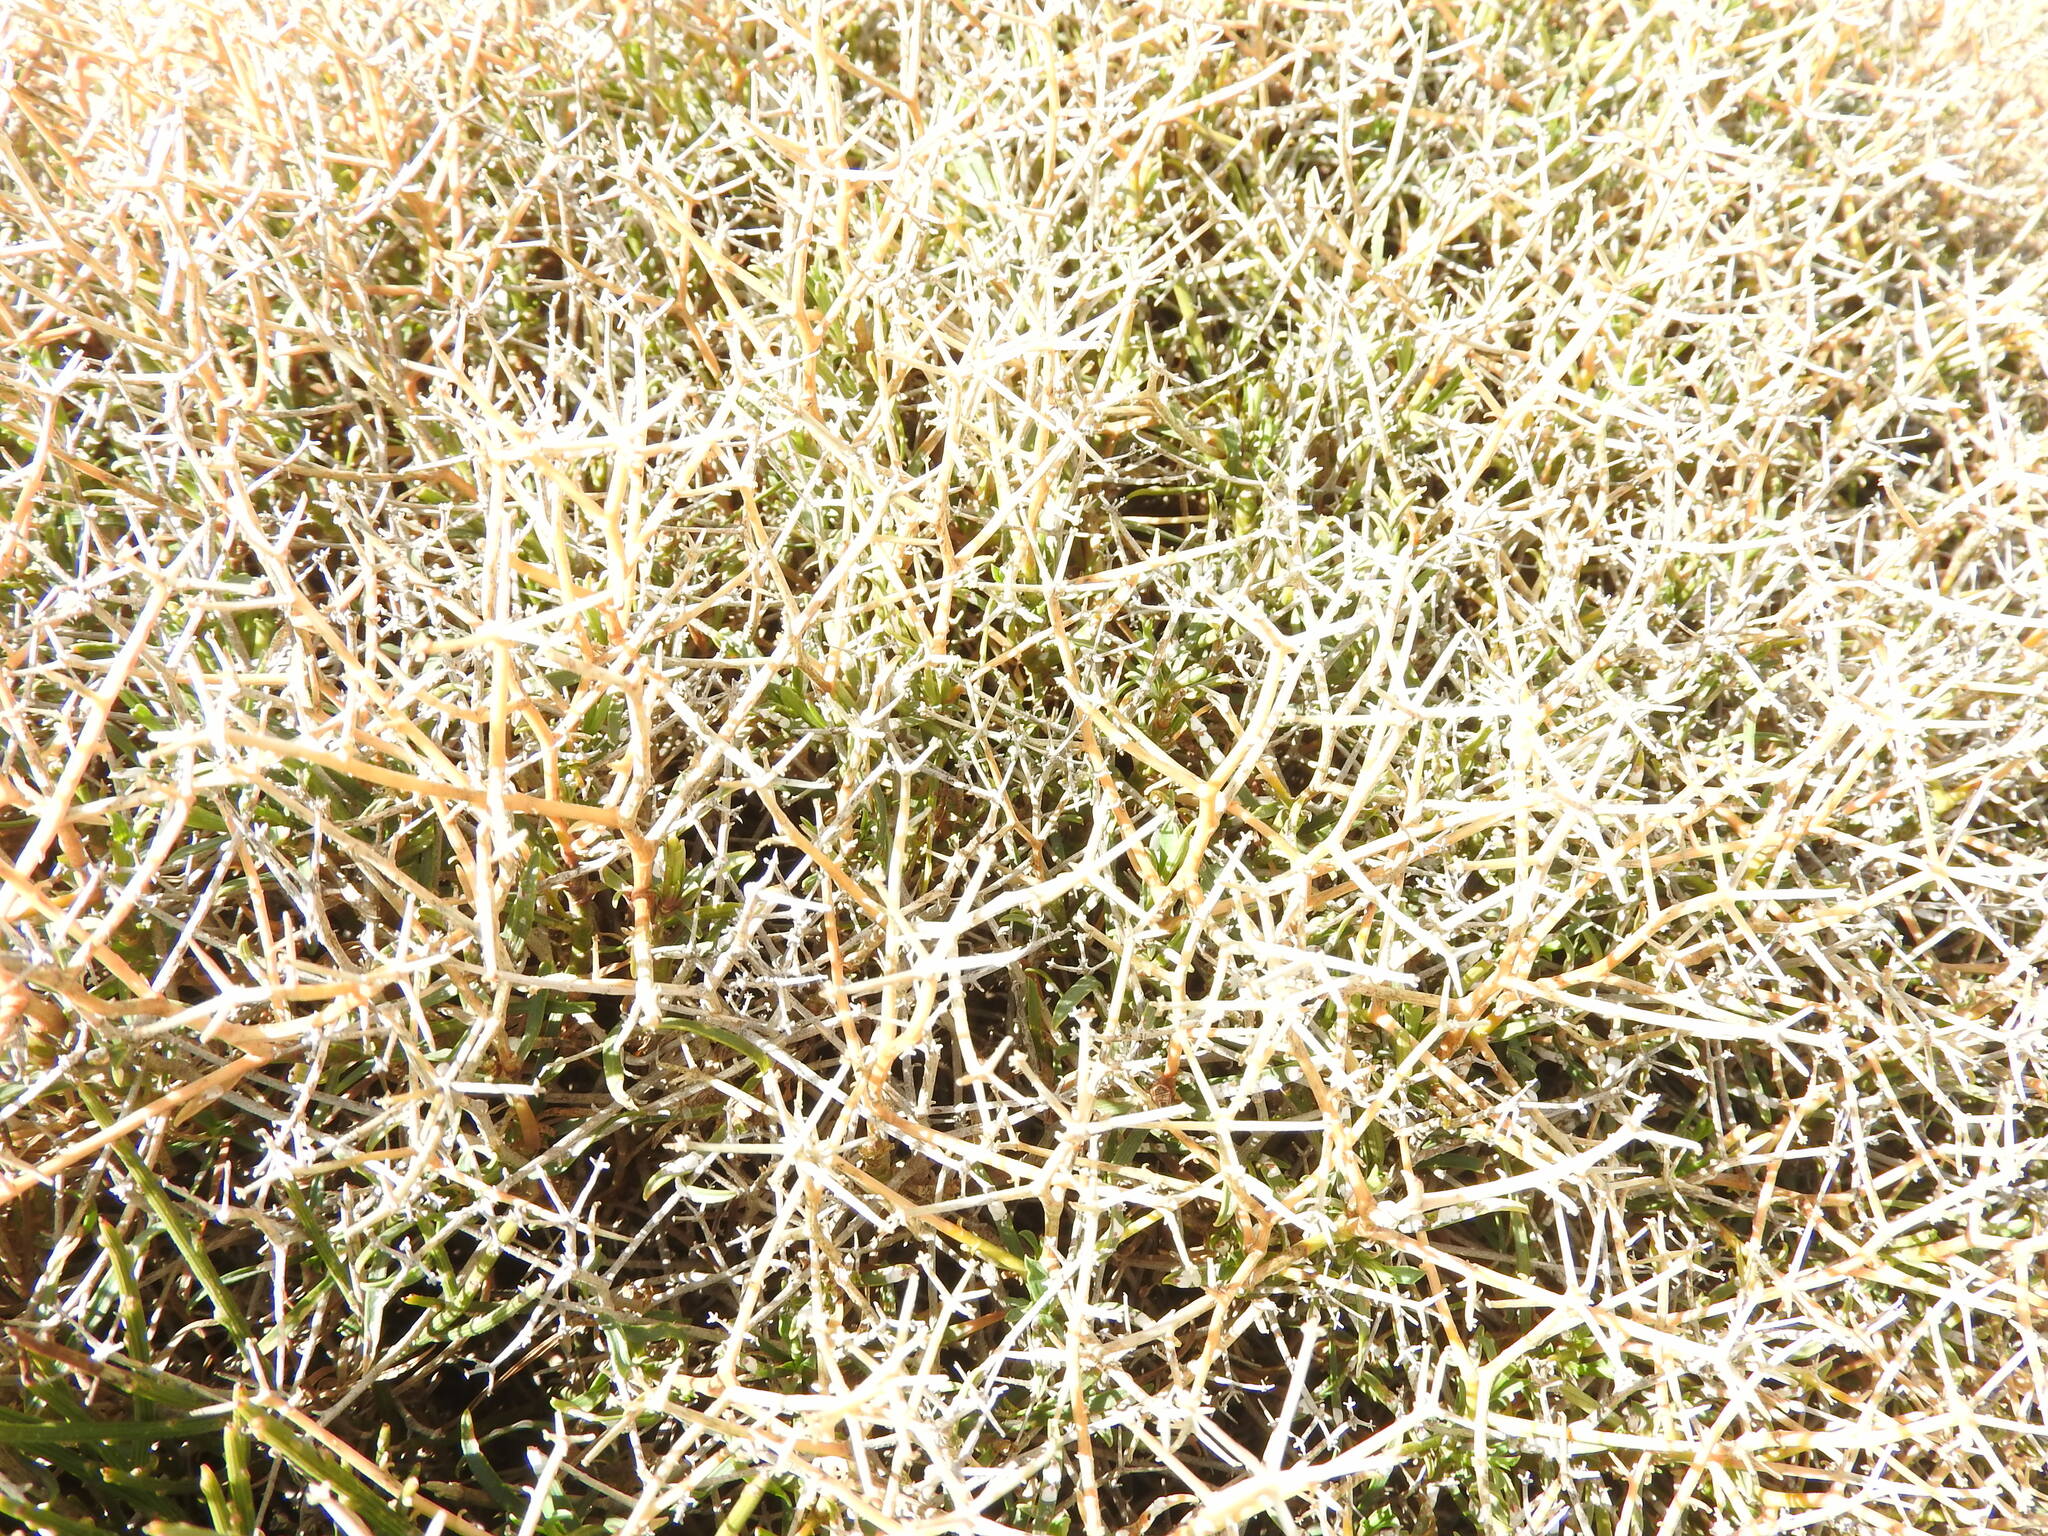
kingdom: Plantae
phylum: Tracheophyta
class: Magnoliopsida
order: Apiales
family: Apiaceae
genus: Bupleurum
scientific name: Bupleurum fruticescens
